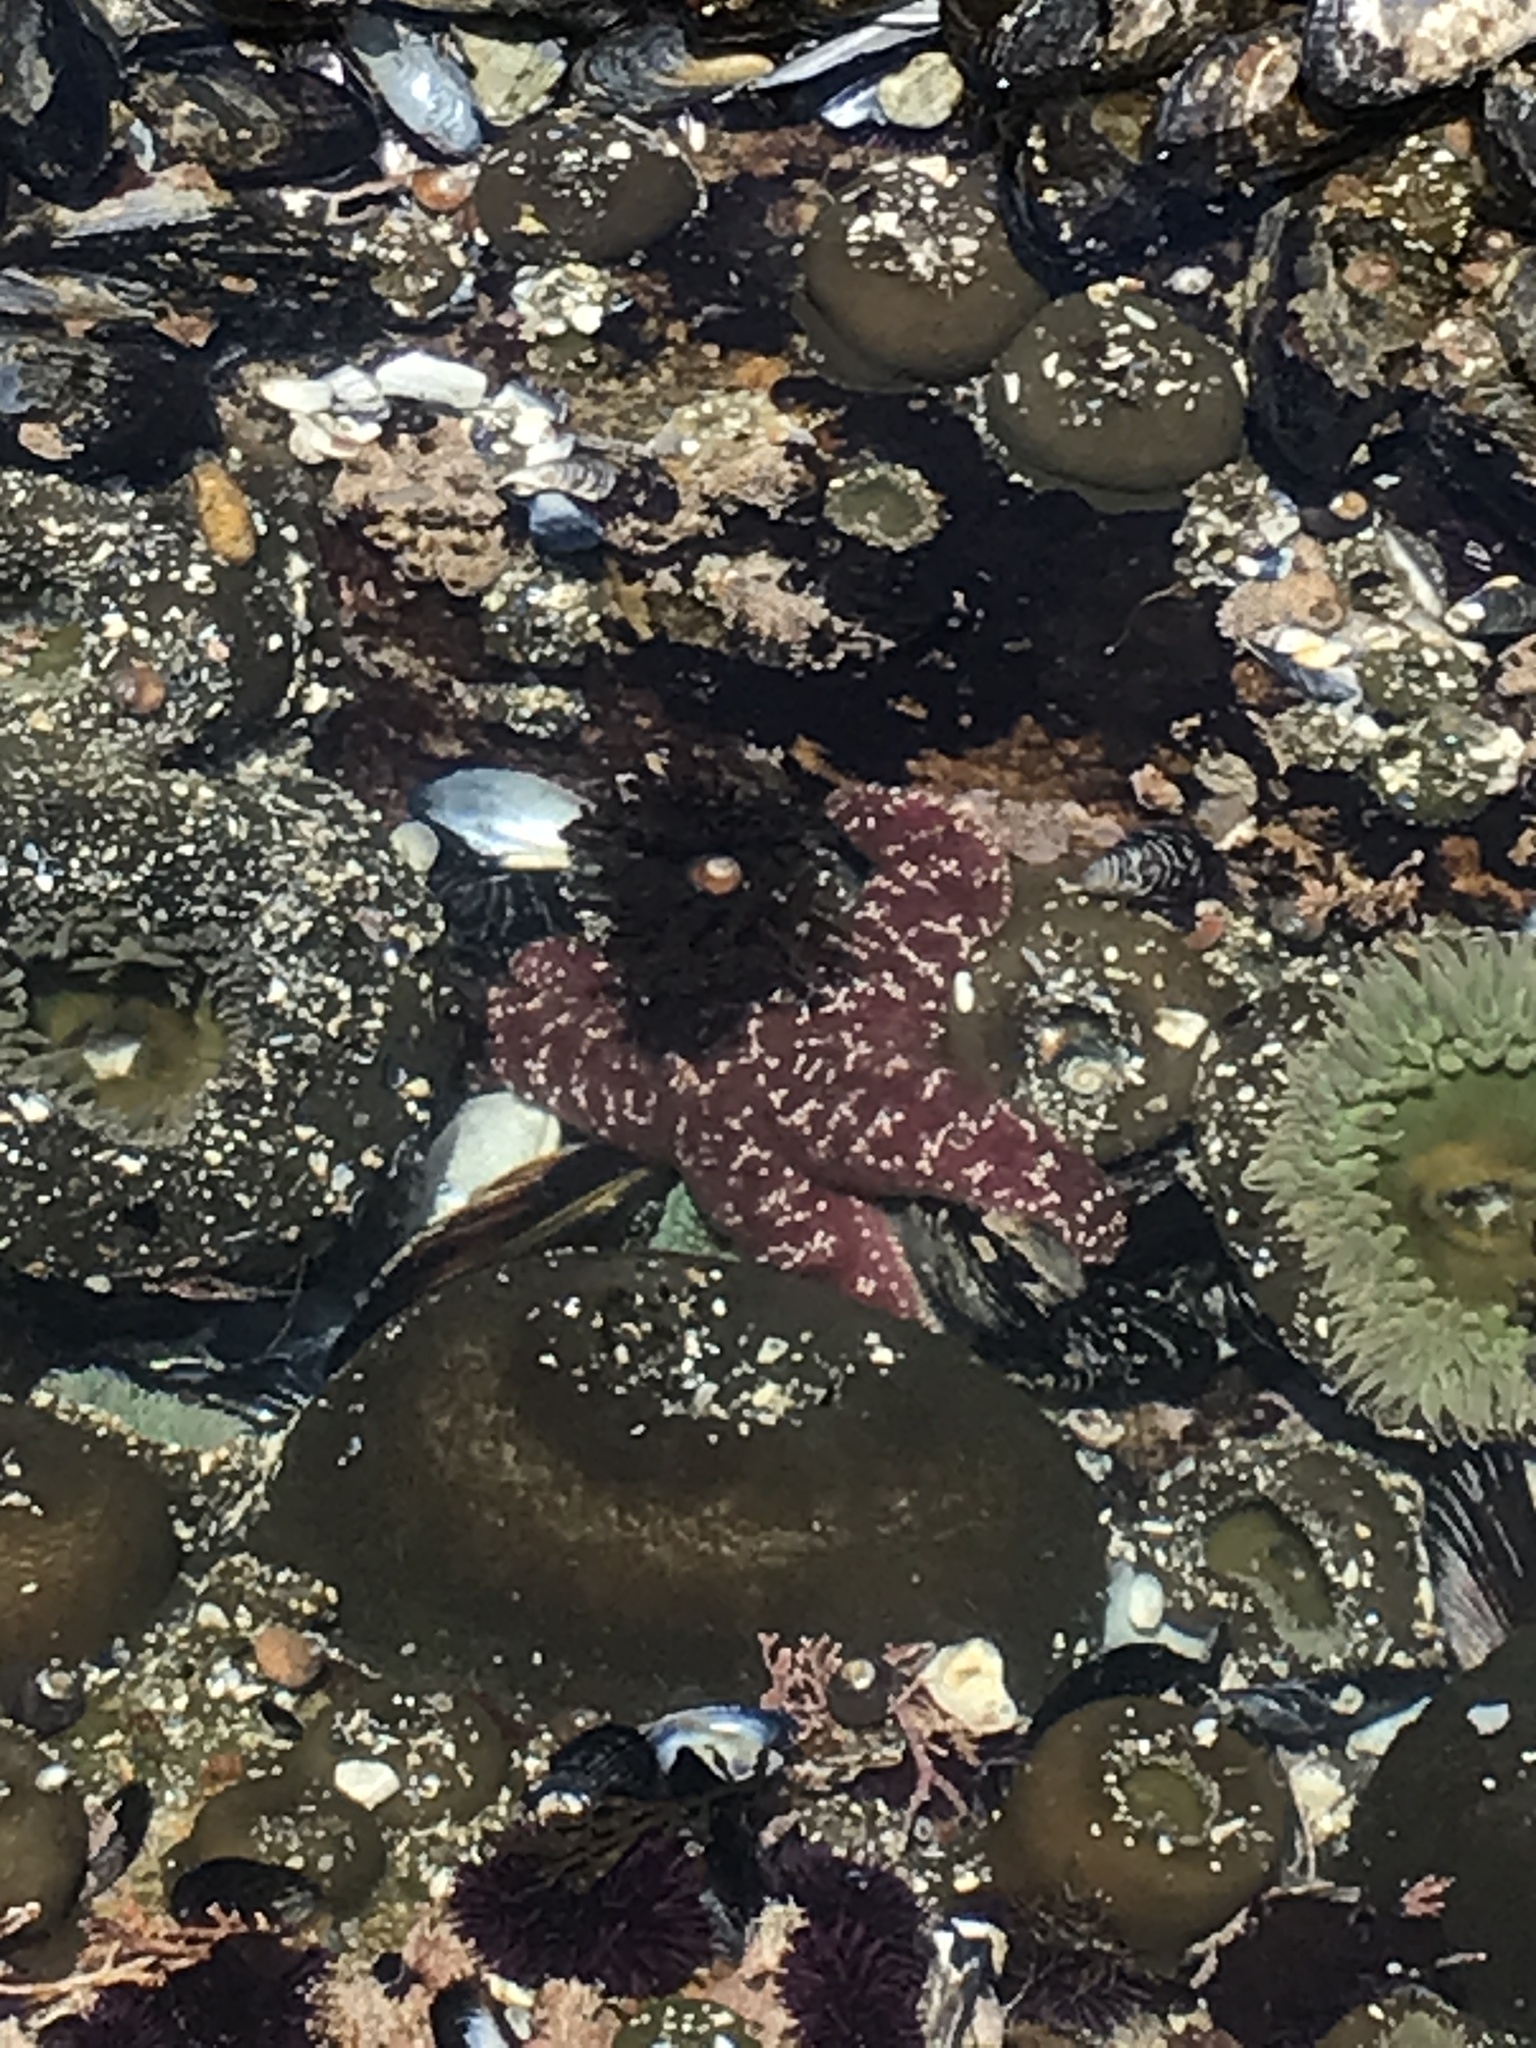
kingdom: Animalia
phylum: Echinodermata
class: Asteroidea
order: Forcipulatida
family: Asteriidae
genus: Pisaster
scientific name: Pisaster ochraceus
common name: Ochre stars
